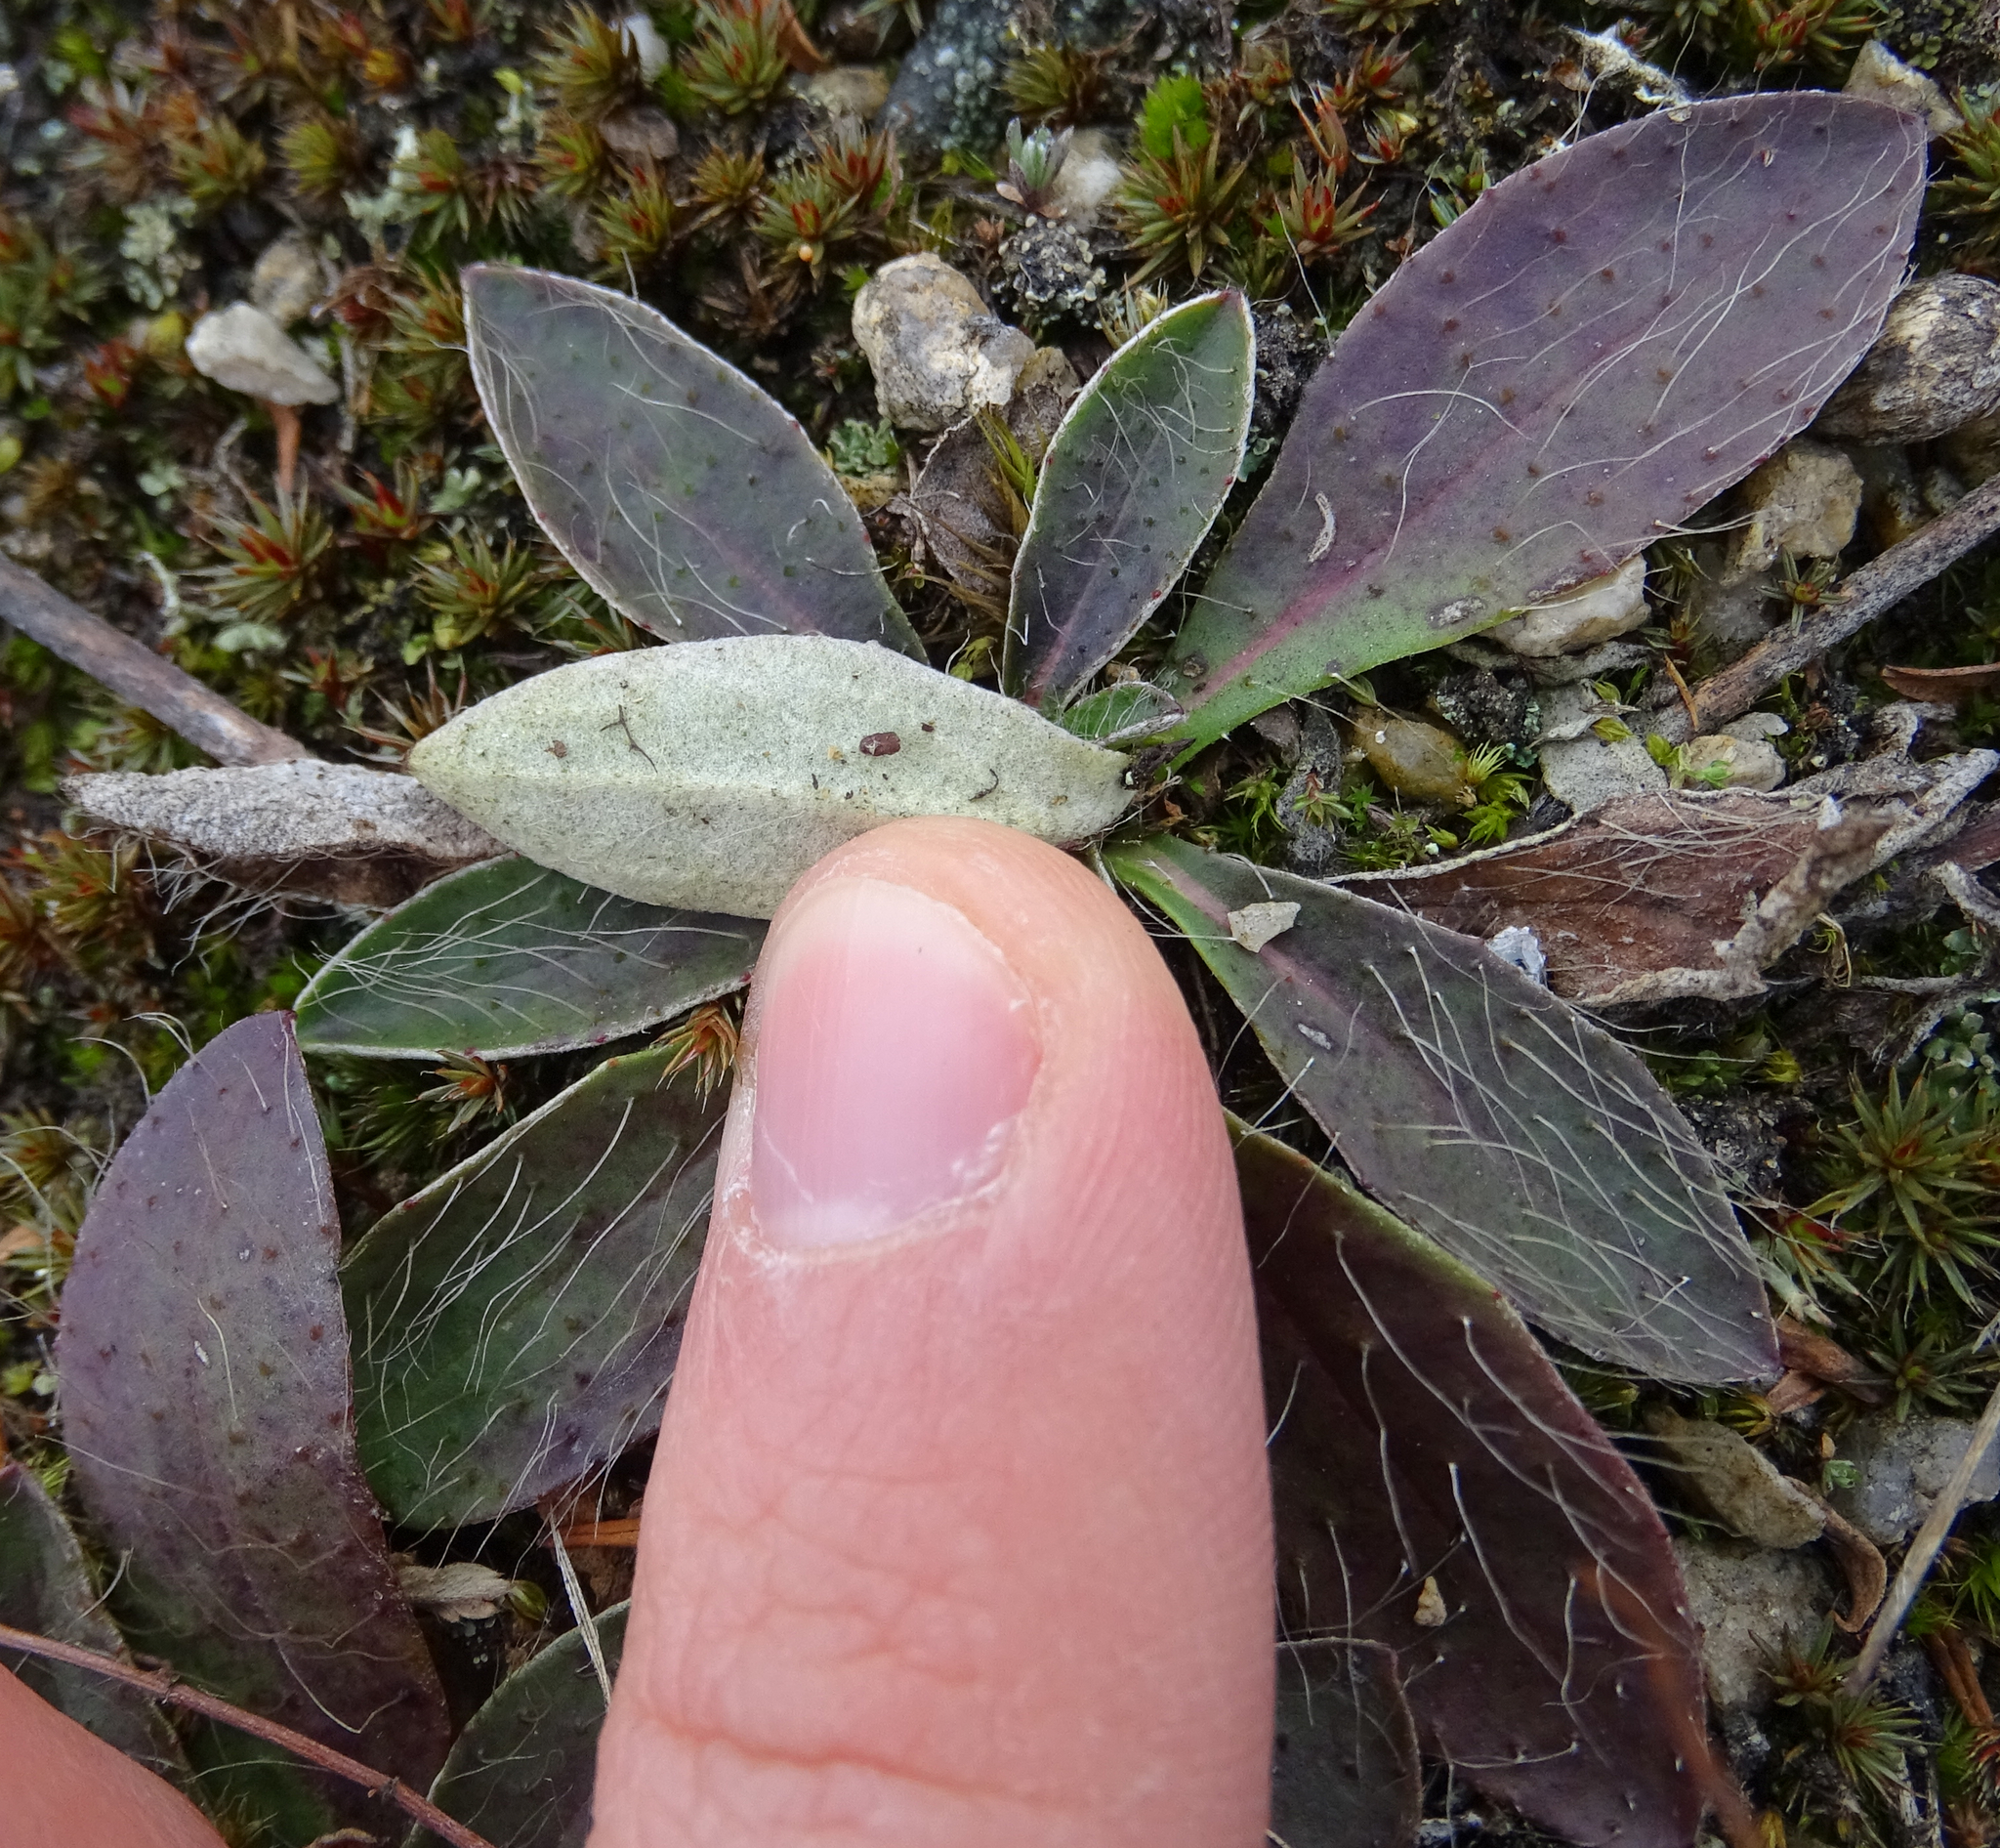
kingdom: Plantae
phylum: Tracheophyta
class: Magnoliopsida
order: Asterales
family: Asteraceae
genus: Pilosella
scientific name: Pilosella officinarum
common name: Mouse-ear hawkweed
